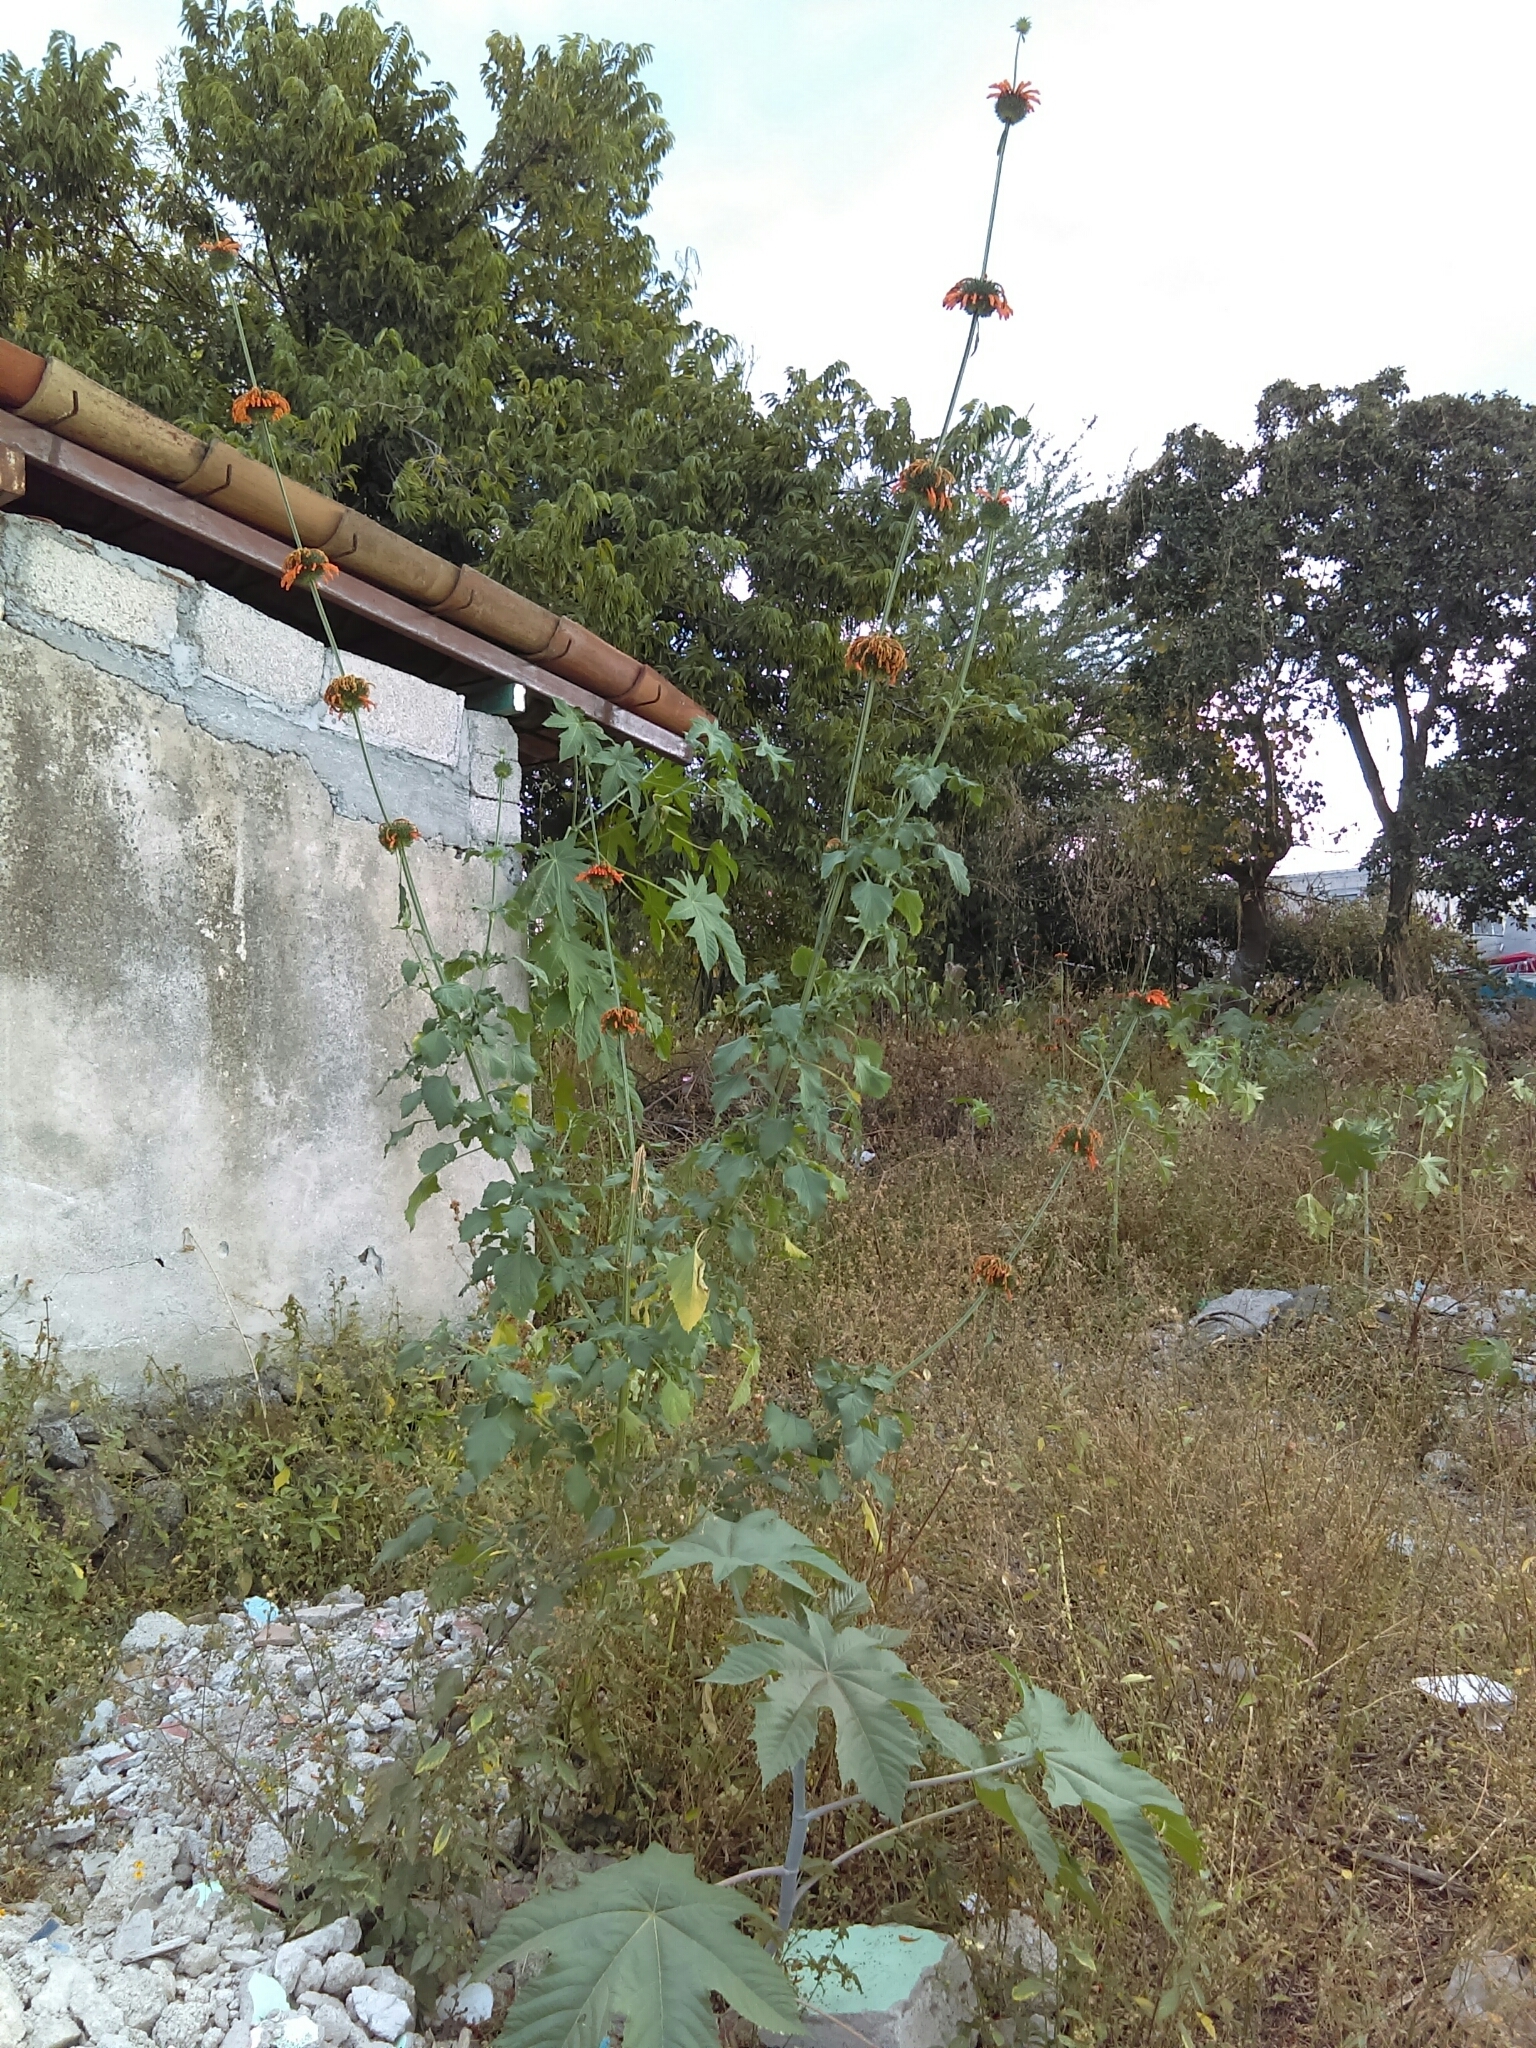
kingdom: Plantae
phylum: Tracheophyta
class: Magnoliopsida
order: Lamiales
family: Lamiaceae
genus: Leonotis
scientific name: Leonotis nepetifolia
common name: Christmas candlestick
